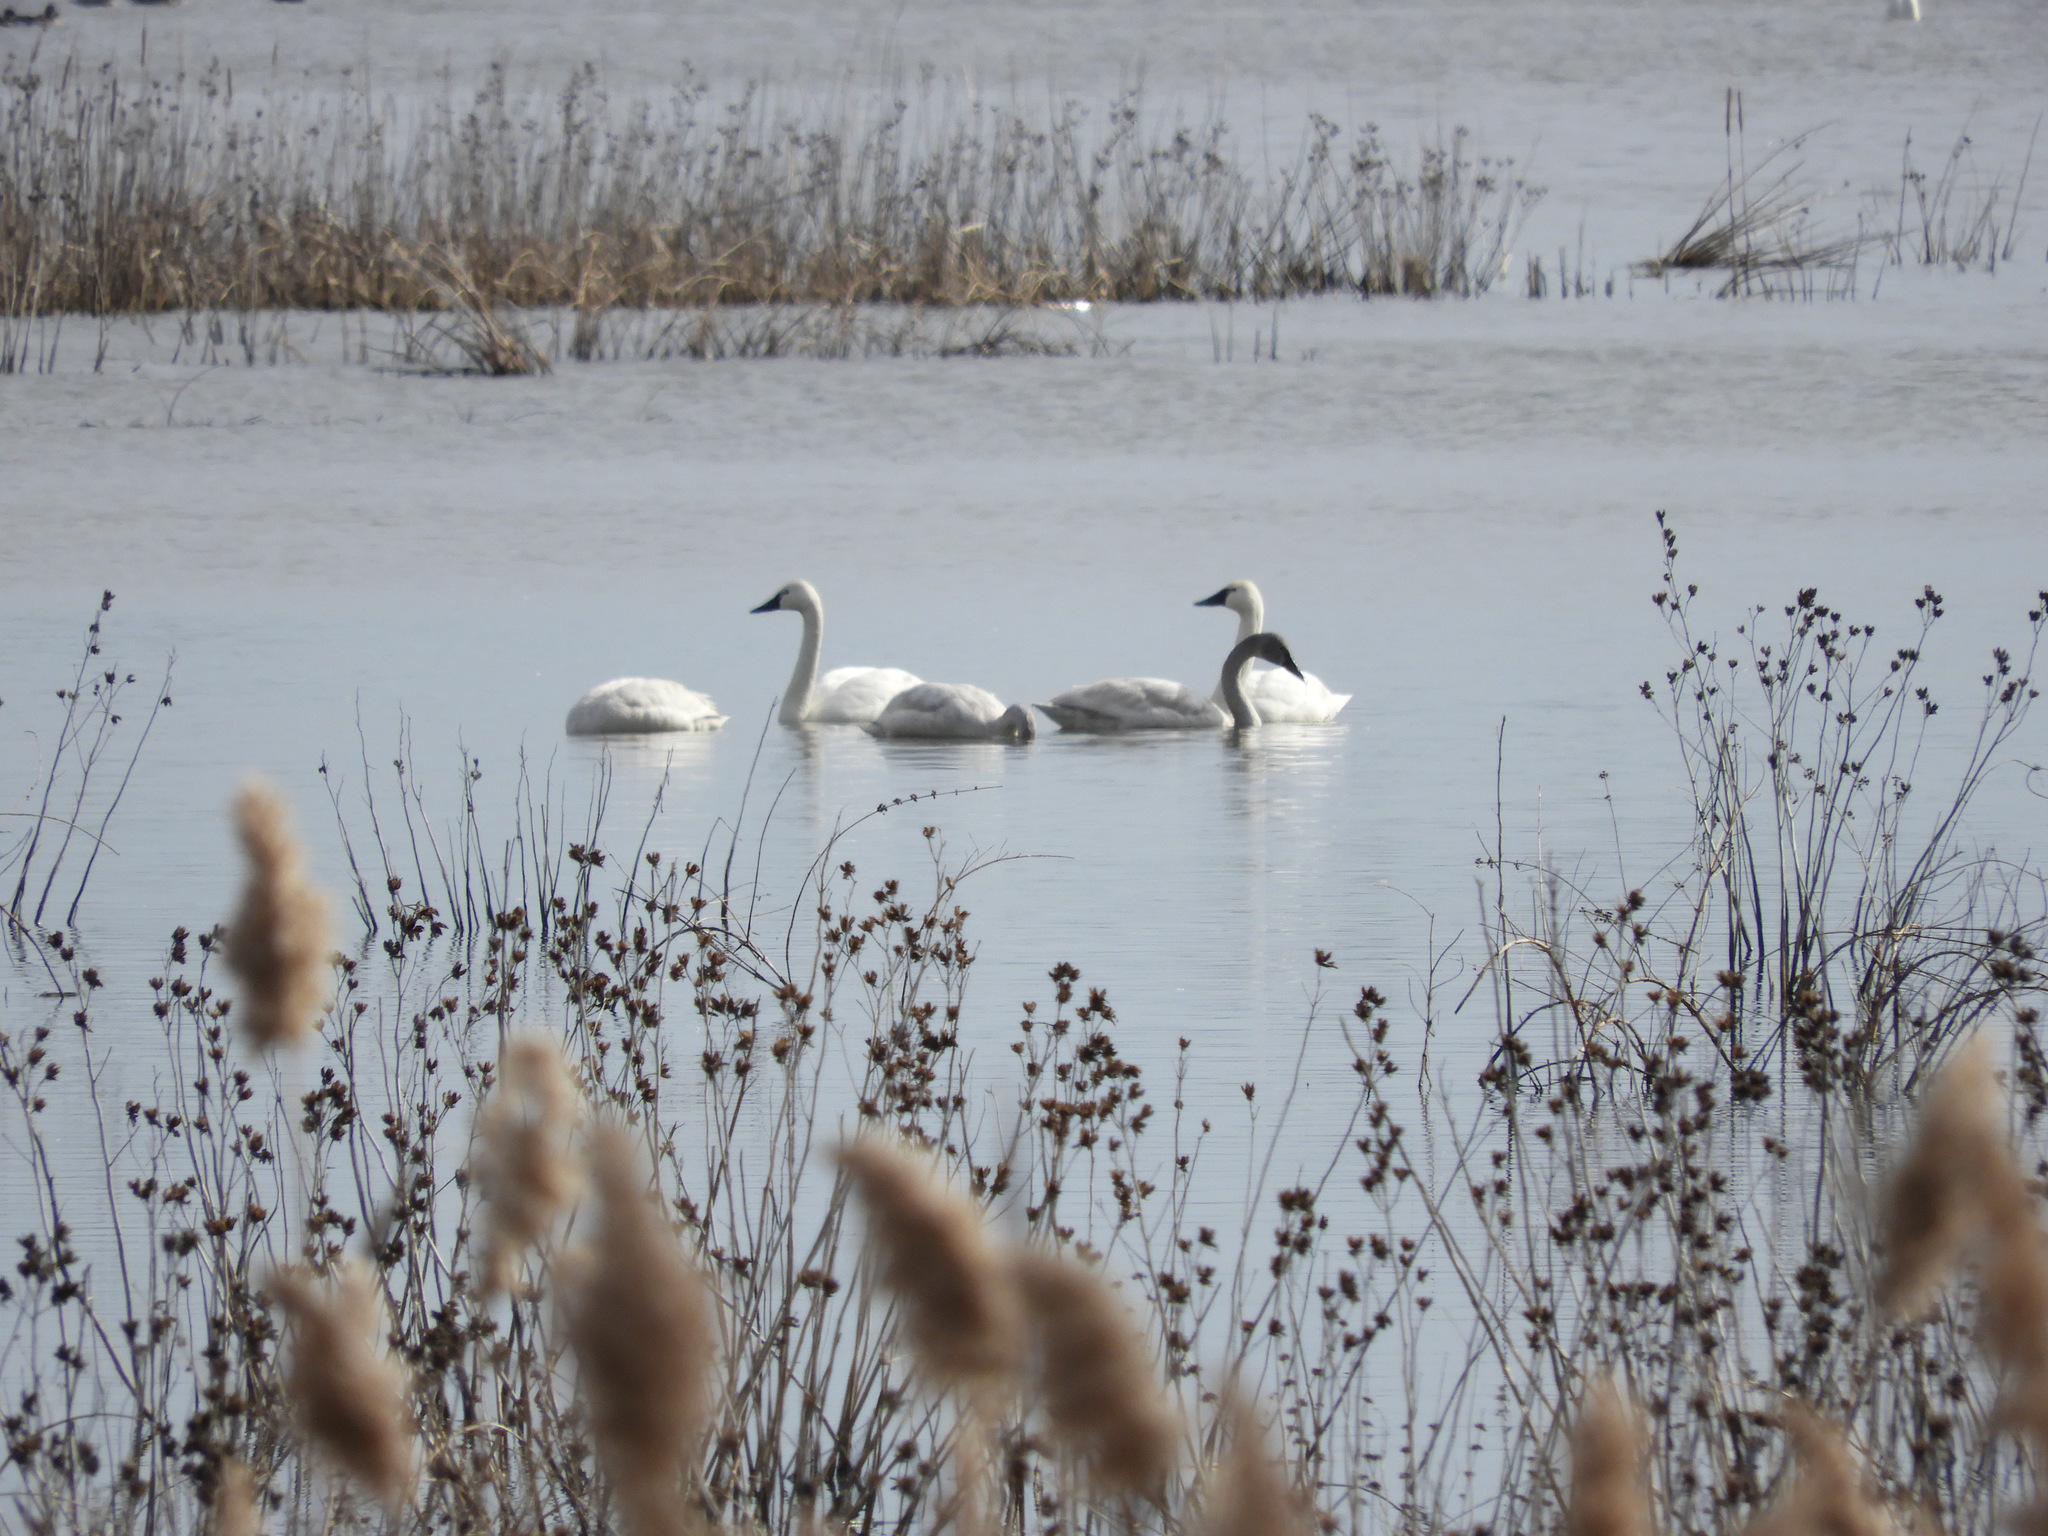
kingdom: Animalia
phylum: Chordata
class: Aves
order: Anseriformes
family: Anatidae
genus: Cygnus
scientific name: Cygnus columbianus
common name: Tundra swan
